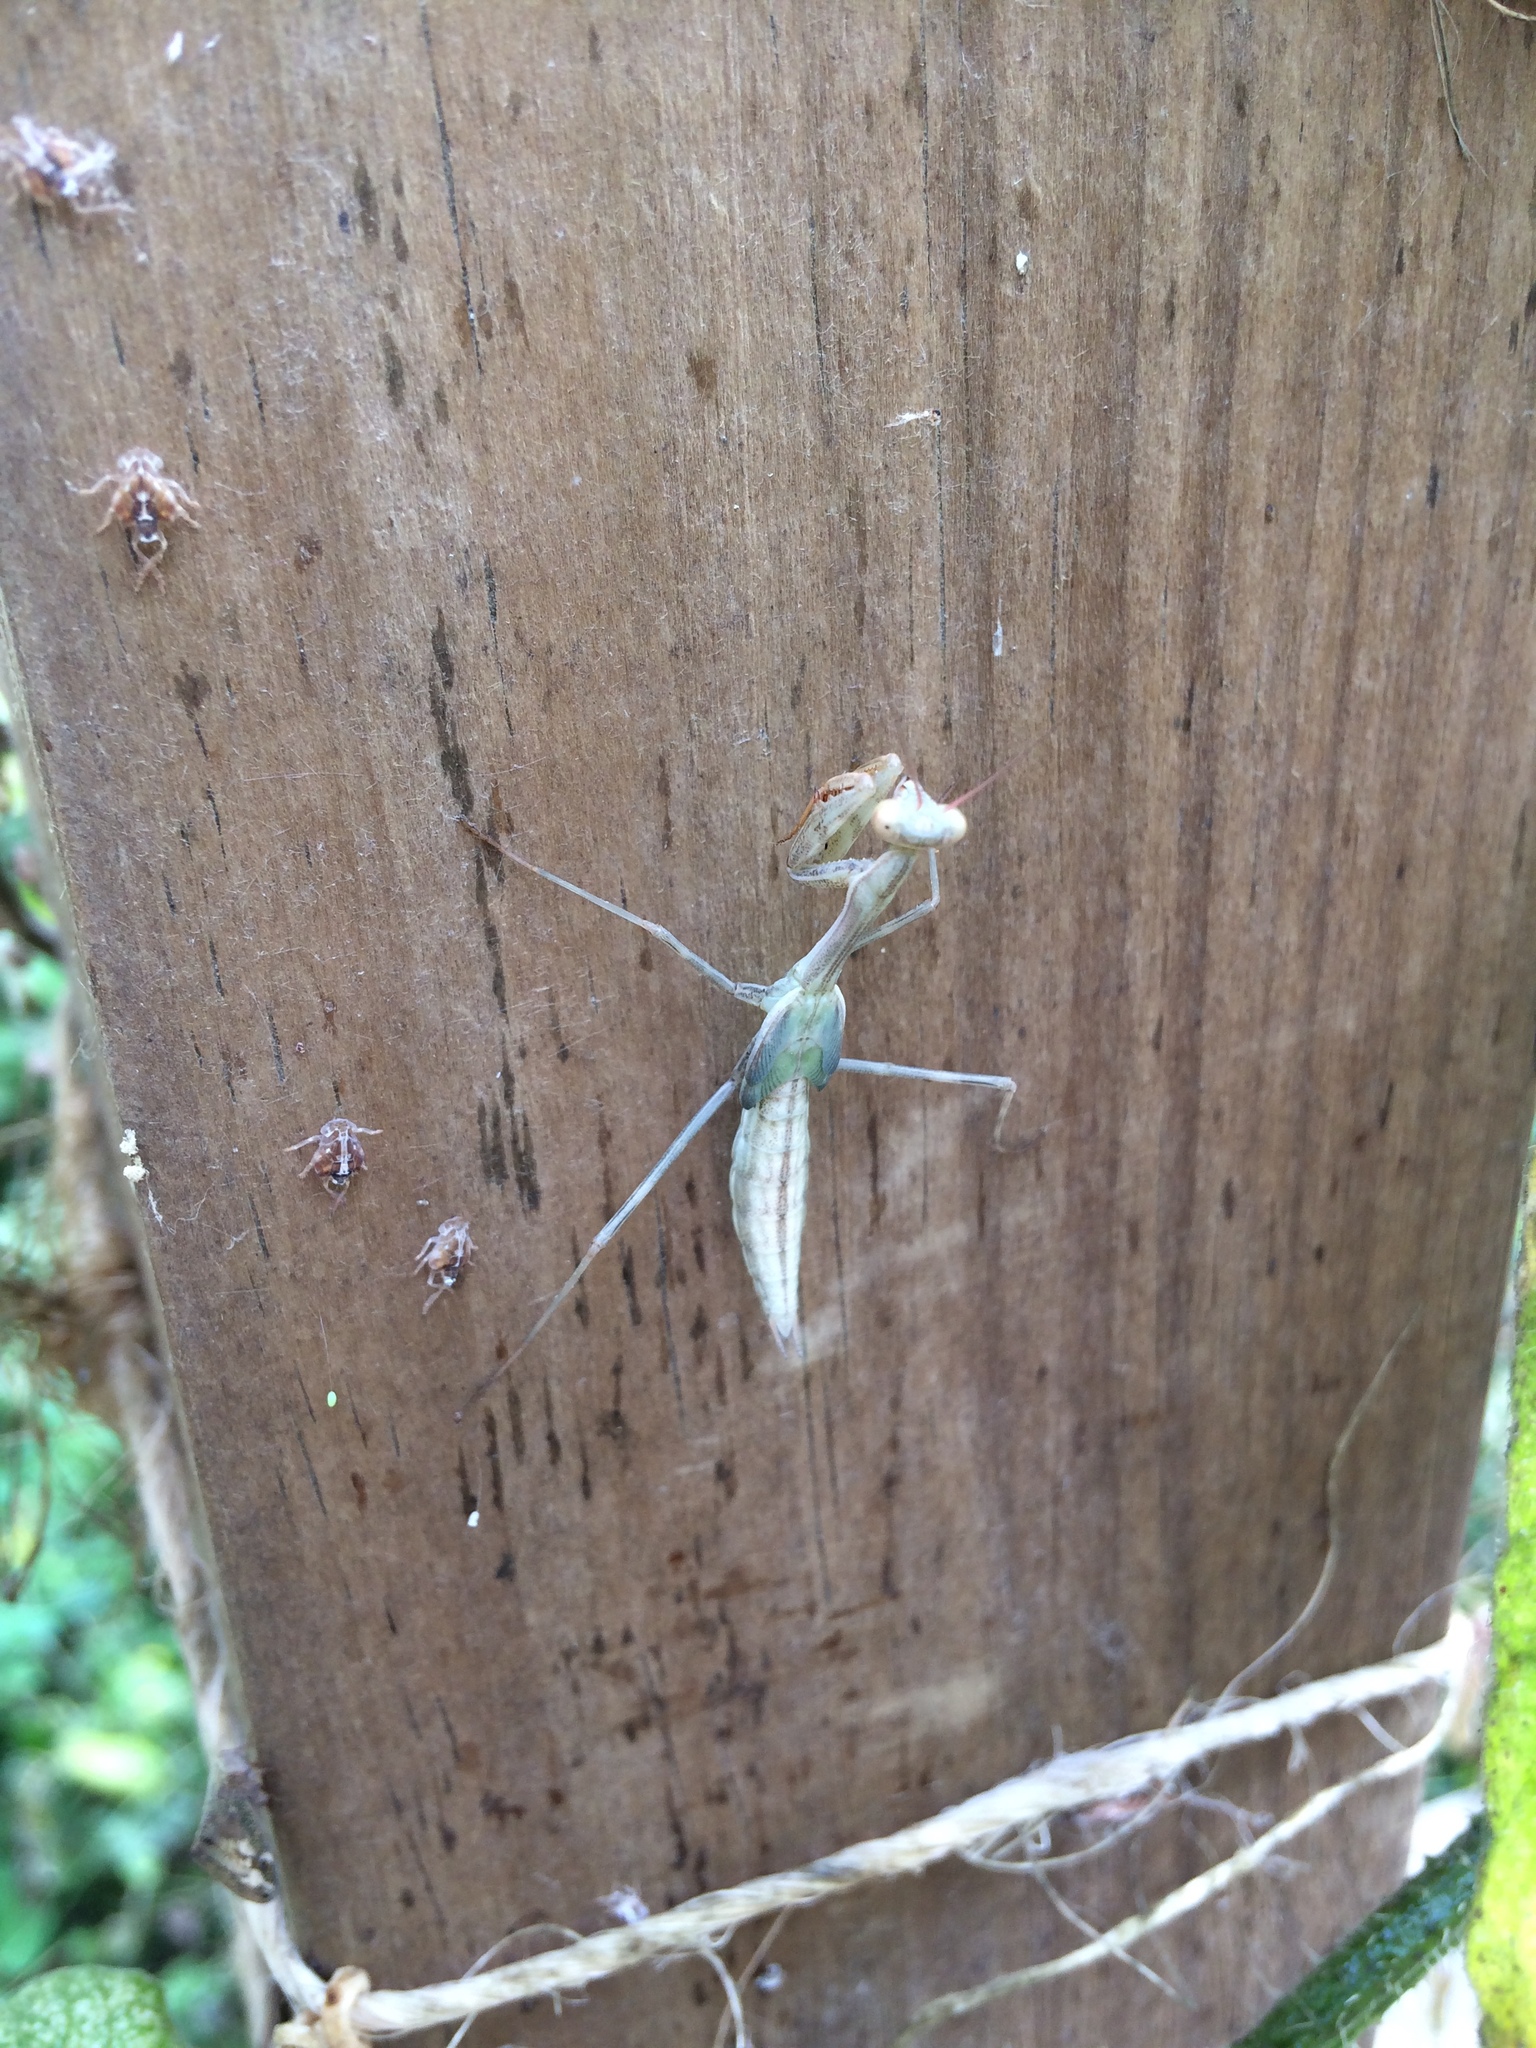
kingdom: Animalia
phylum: Arthropoda
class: Insecta
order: Mantodea
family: Miomantidae
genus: Miomantis
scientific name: Miomantis caffra
